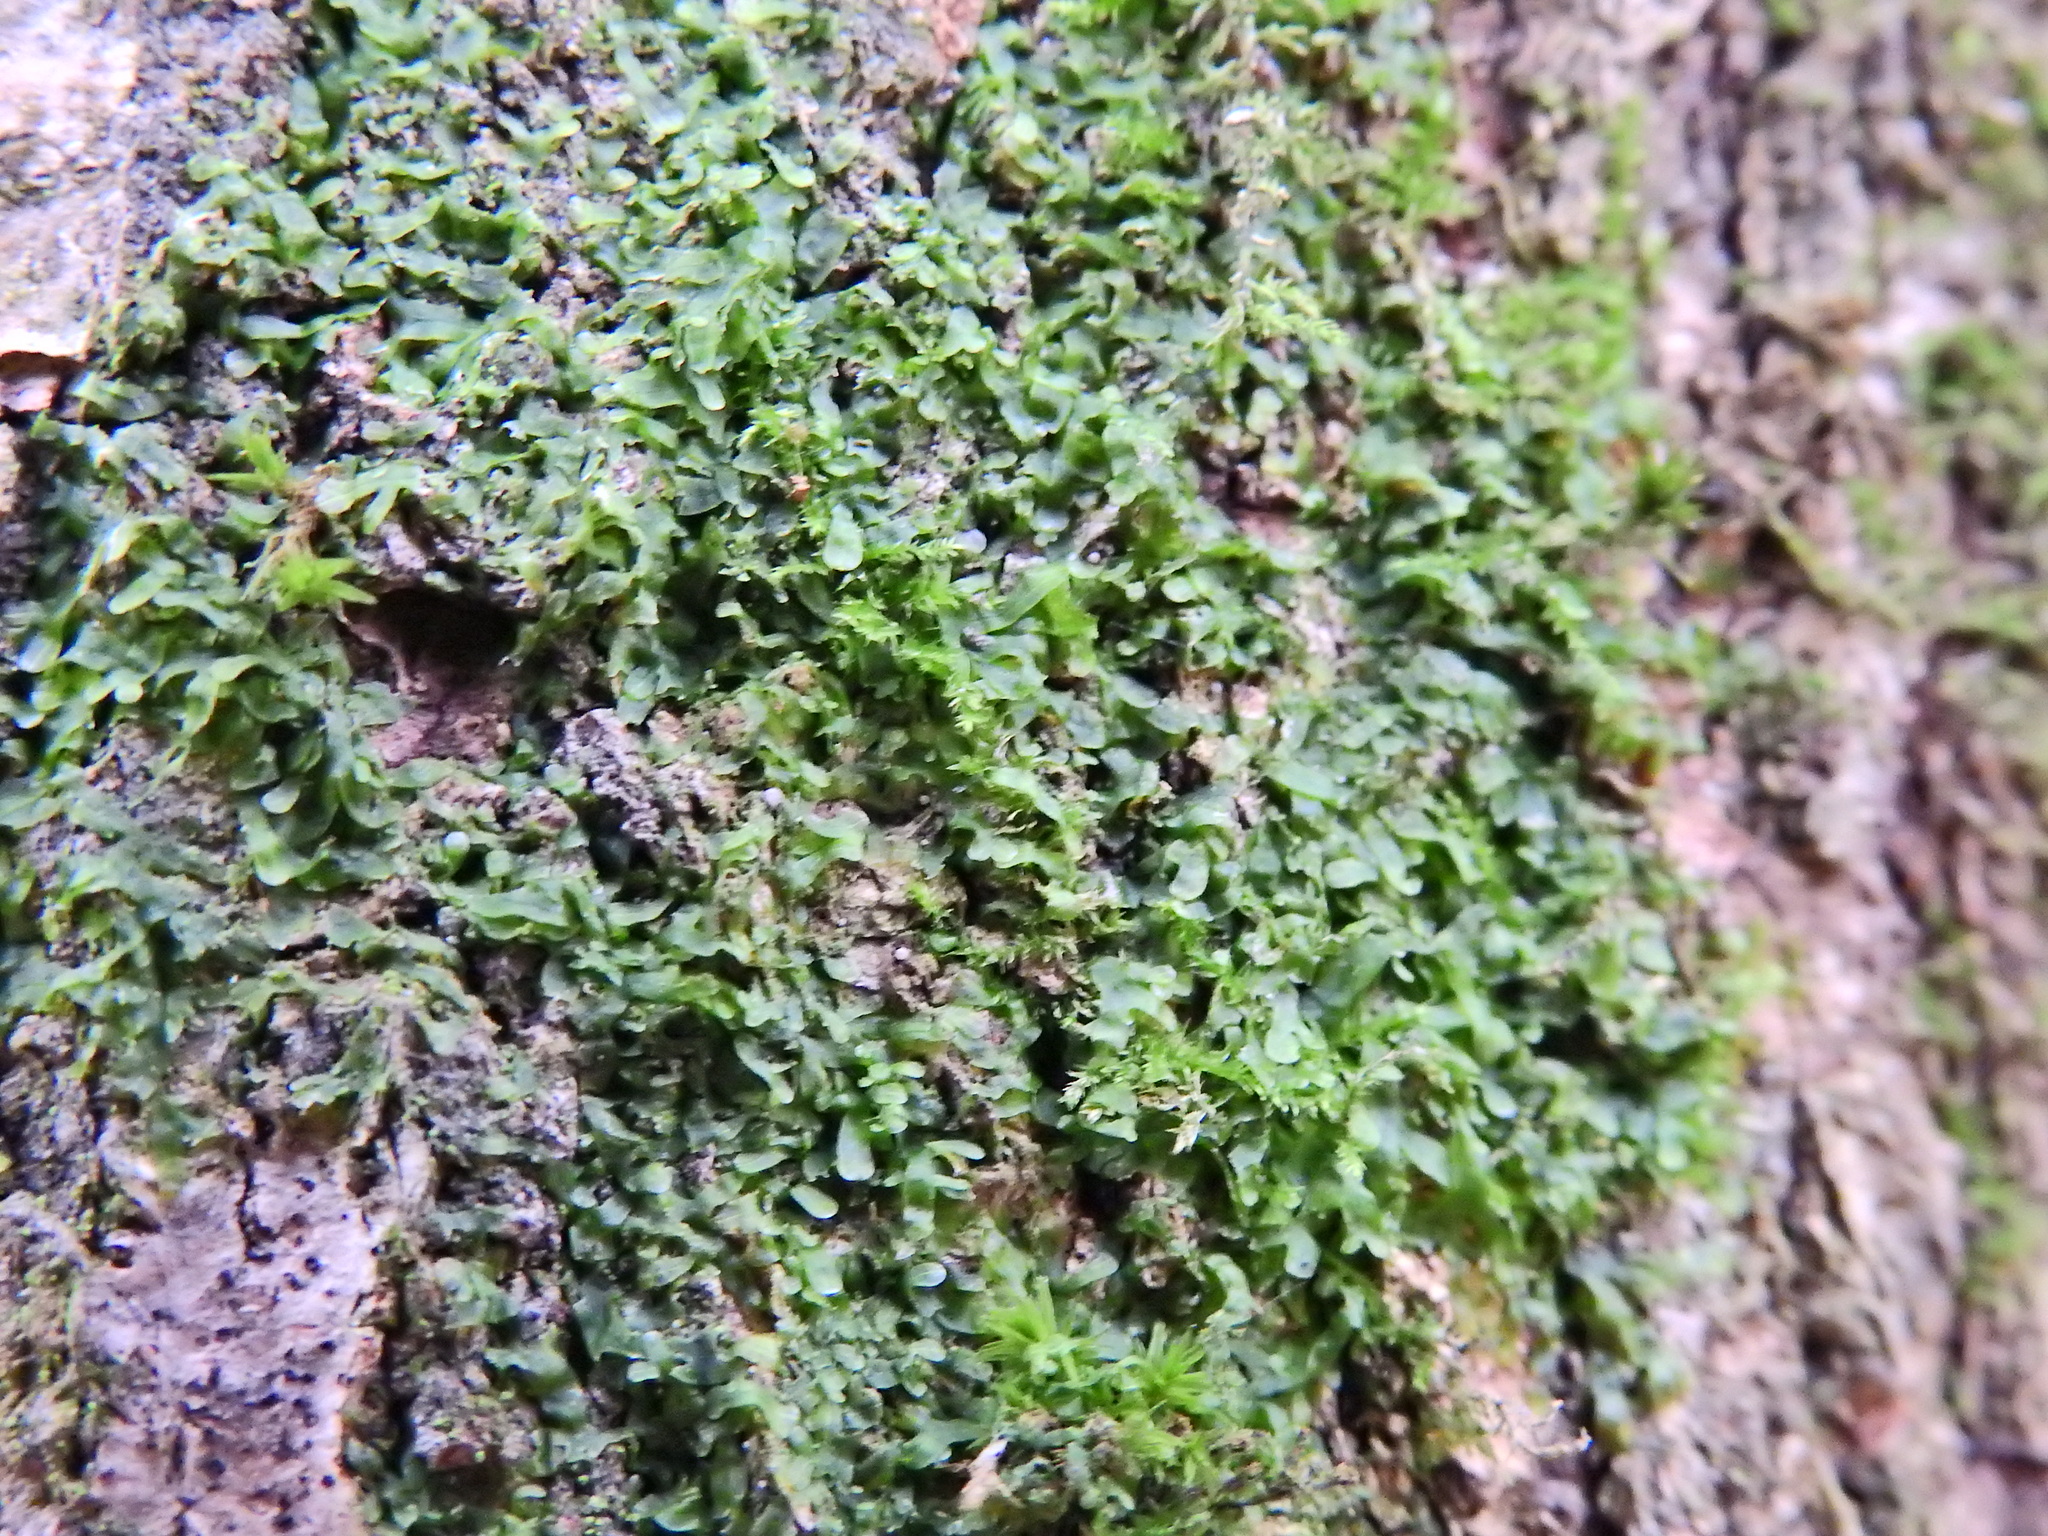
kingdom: Plantae
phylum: Marchantiophyta
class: Jungermanniopsida
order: Metzgeriales
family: Metzgeriaceae
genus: Metzgeria
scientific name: Metzgeria furcata
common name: Forked veilwort
